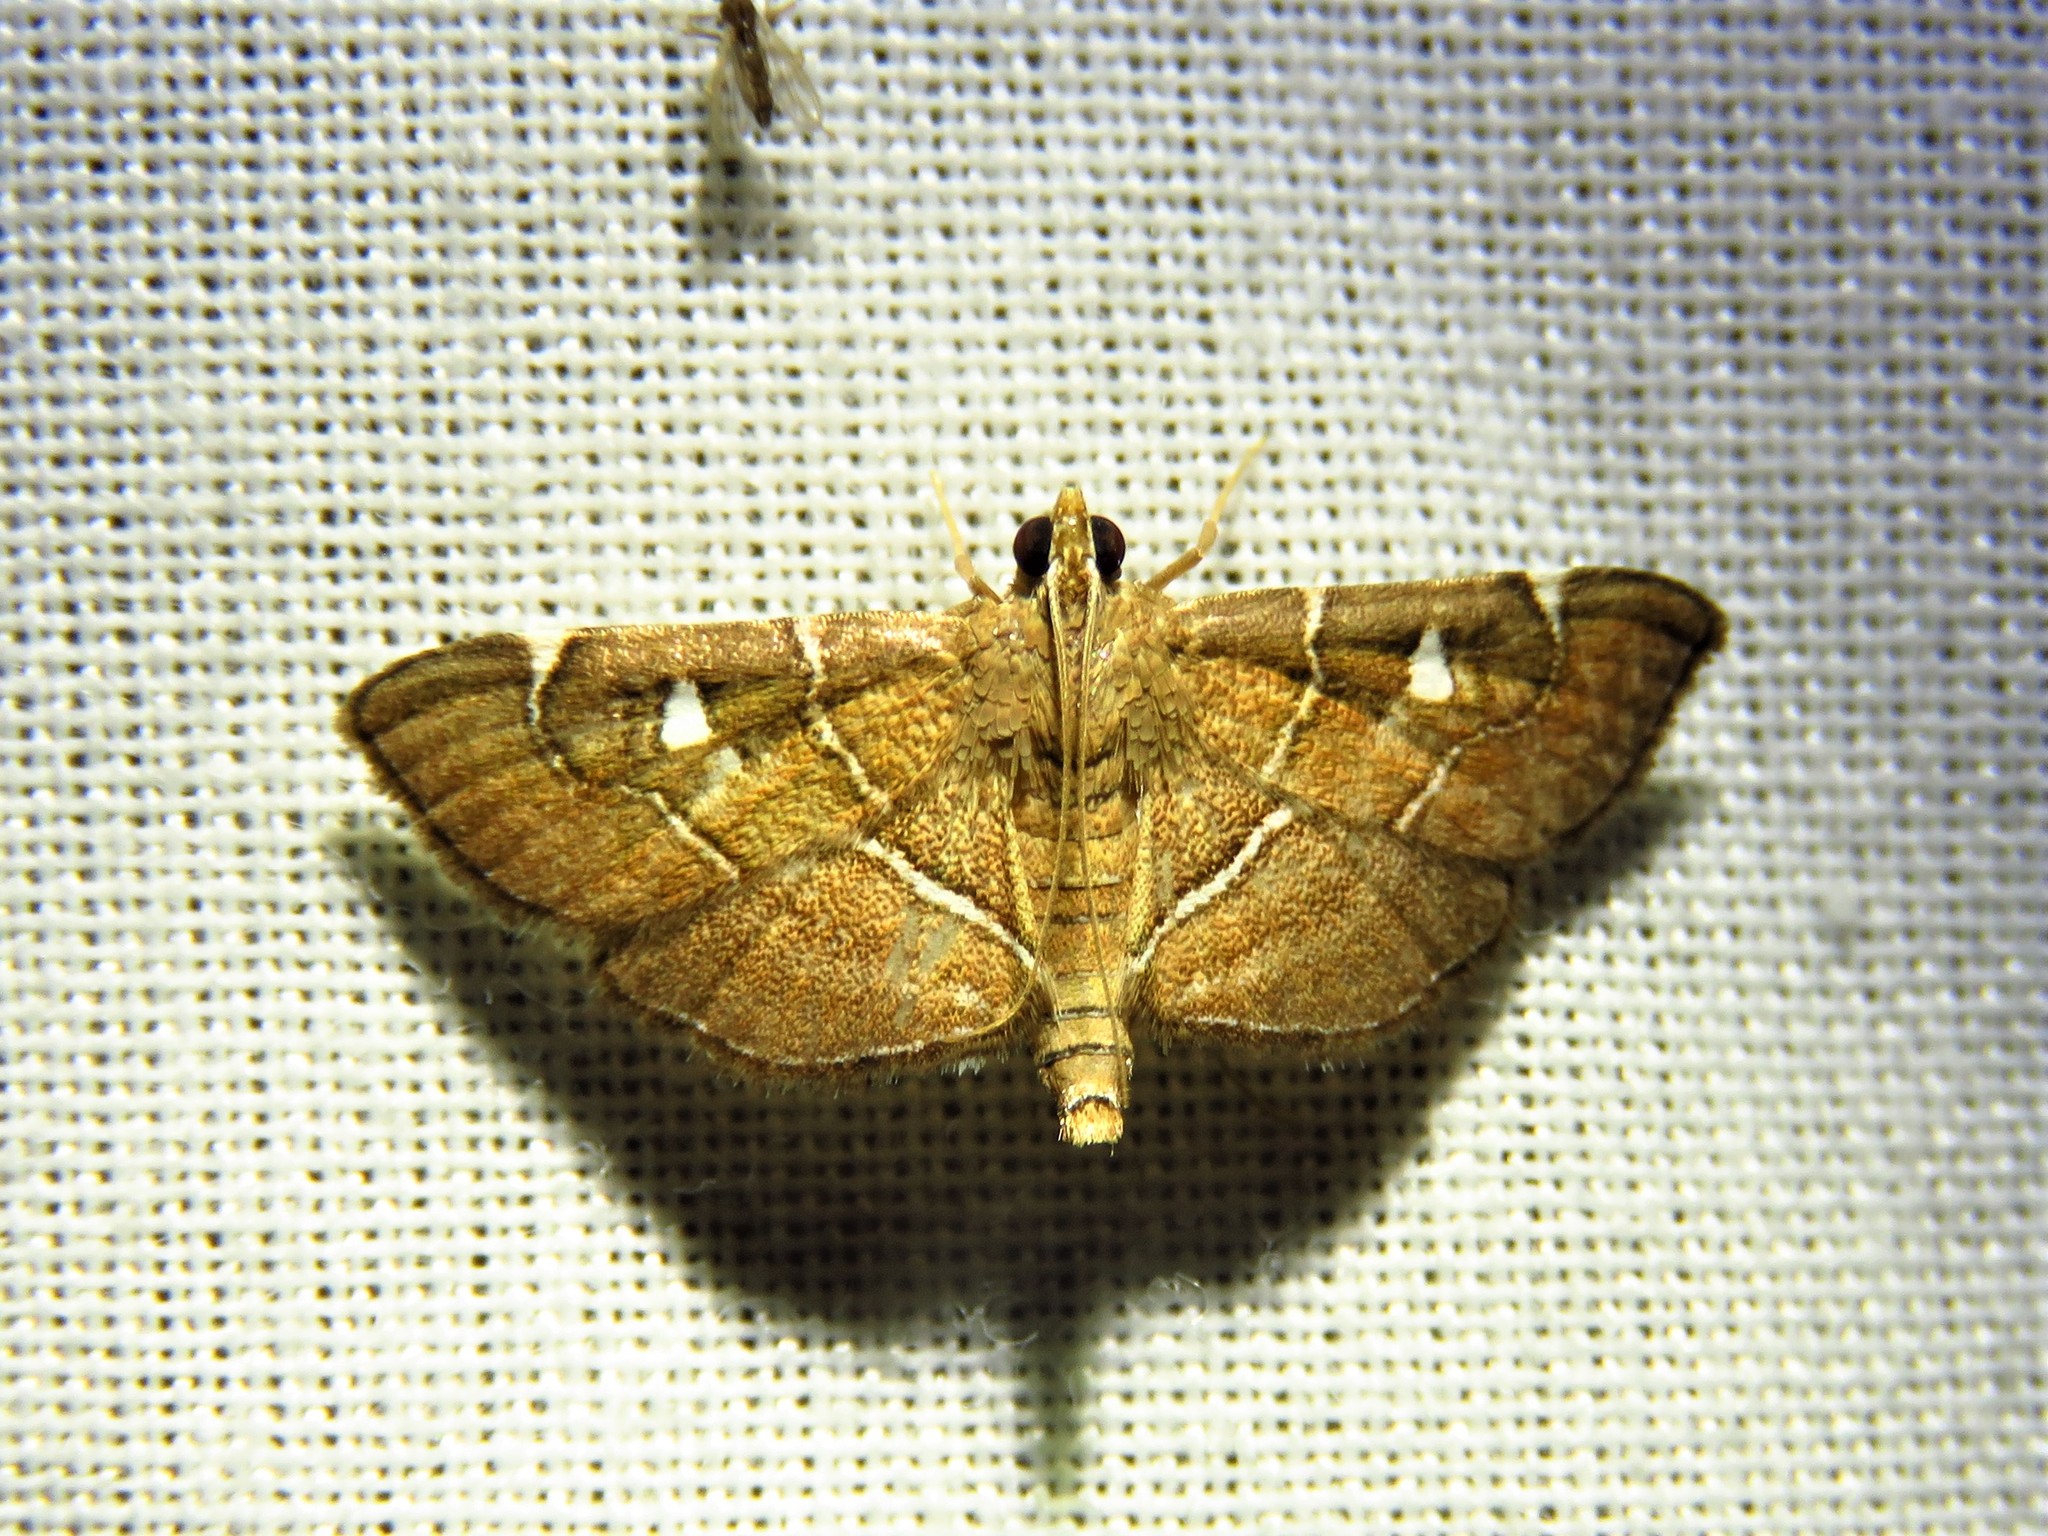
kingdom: Animalia
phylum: Arthropoda
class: Insecta
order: Lepidoptera
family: Crambidae
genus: Lamprosema
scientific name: Lamprosema victoriae
